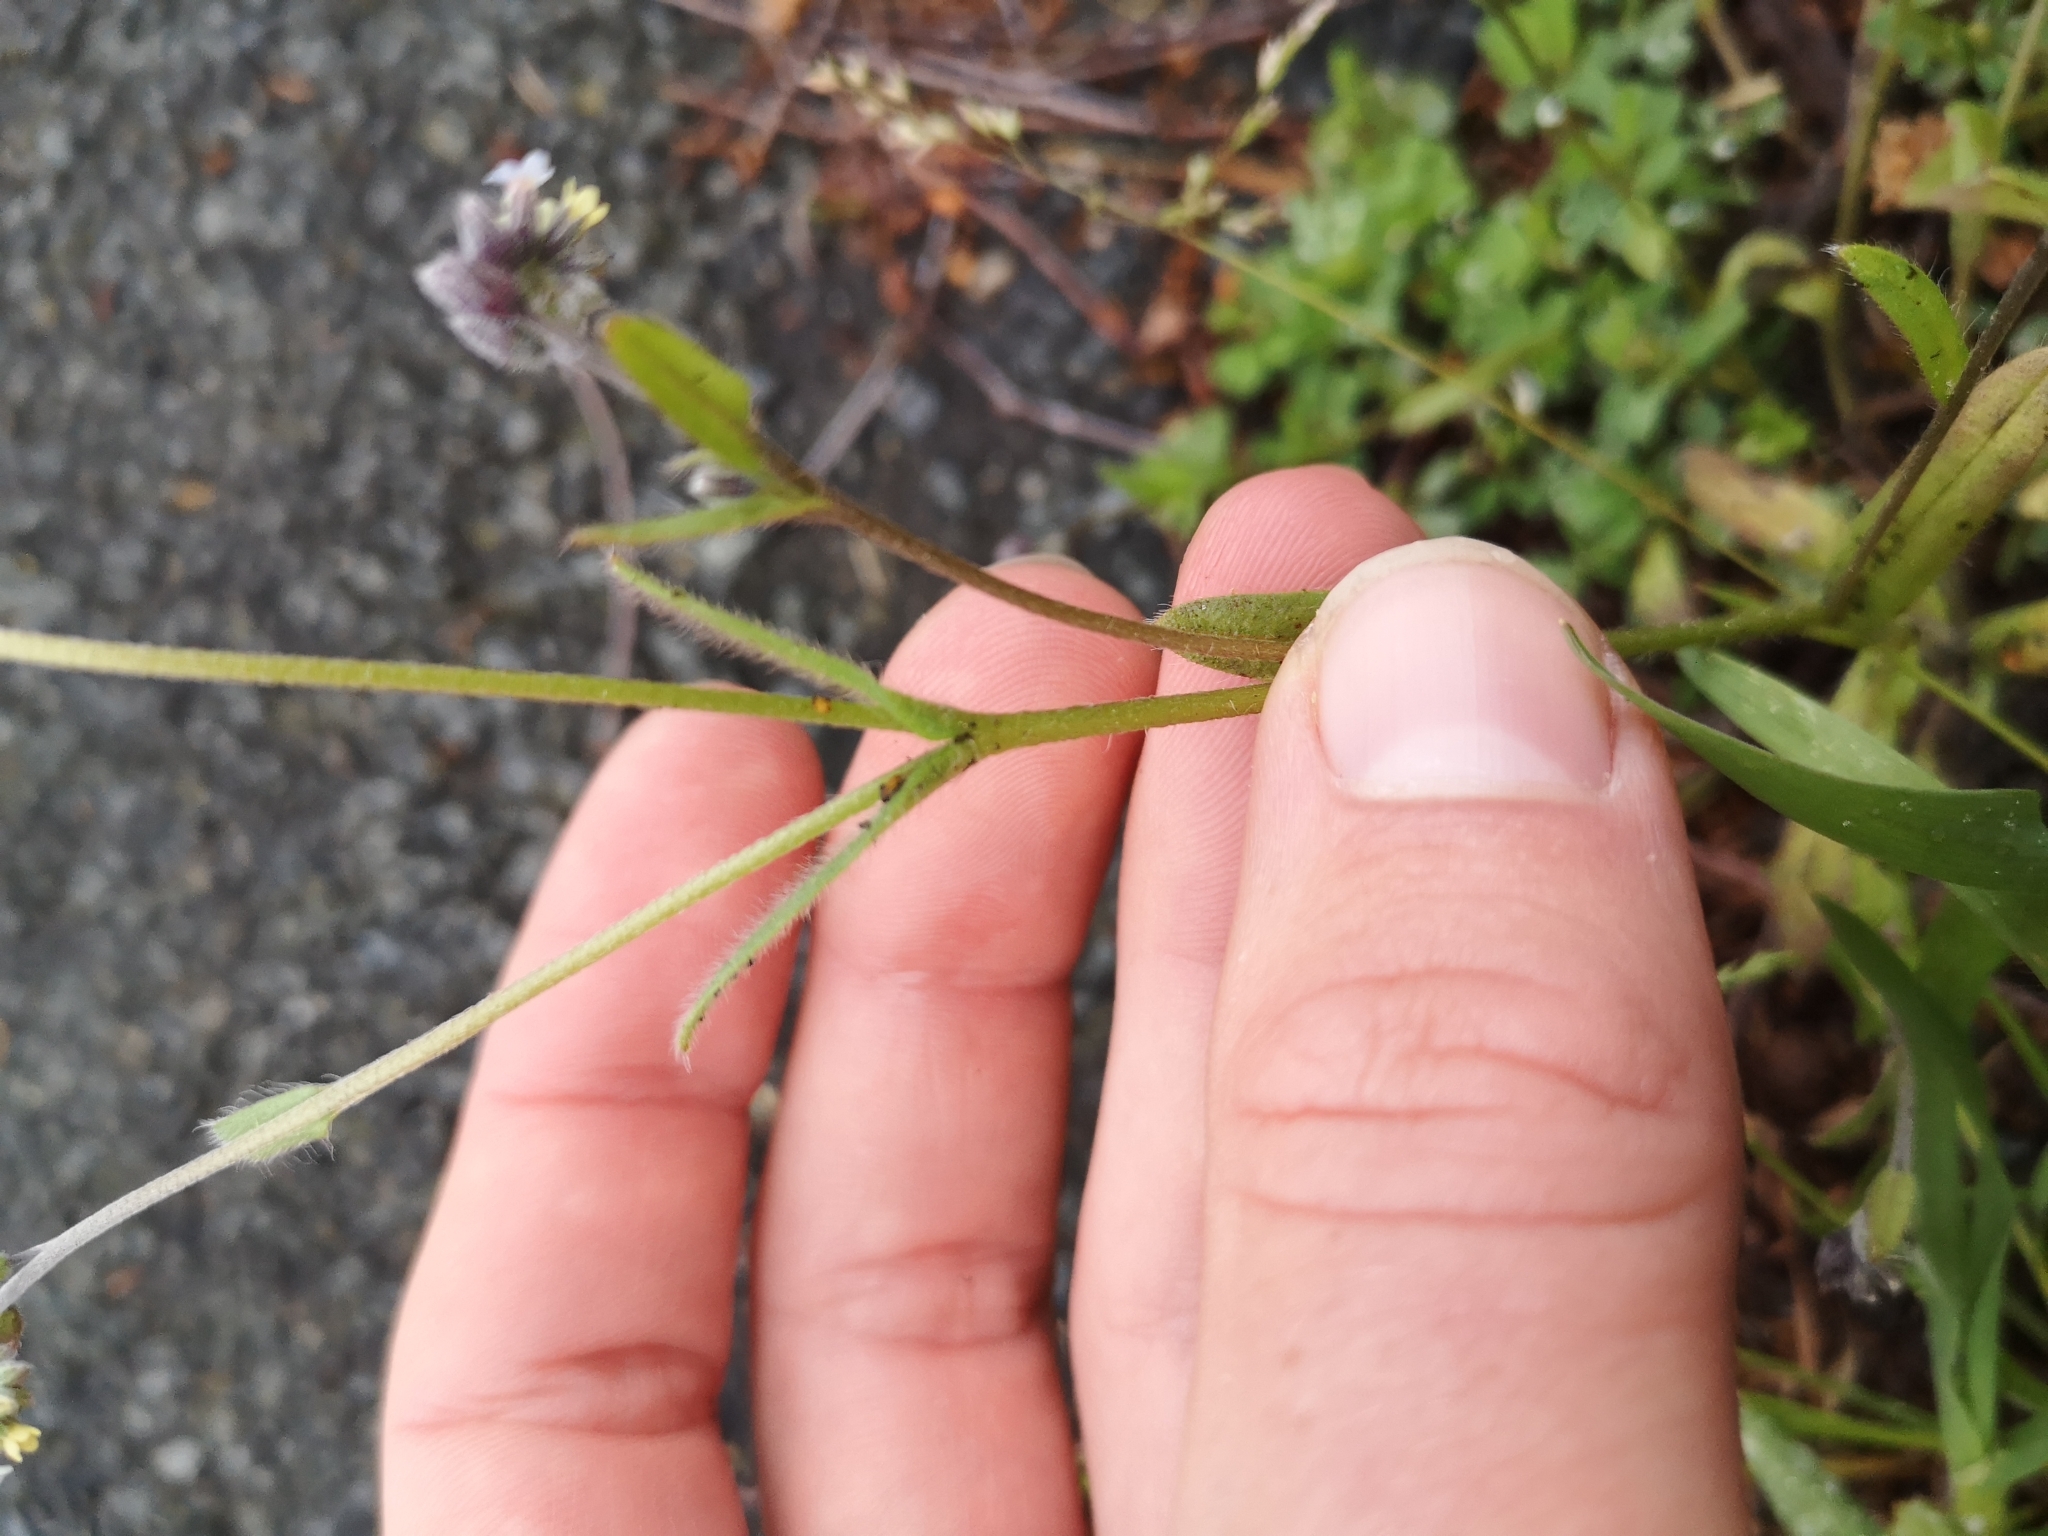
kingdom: Plantae
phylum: Tracheophyta
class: Magnoliopsida
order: Boraginales
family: Boraginaceae
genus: Myosotis
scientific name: Myosotis discolor
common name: Changing forget-me-not
